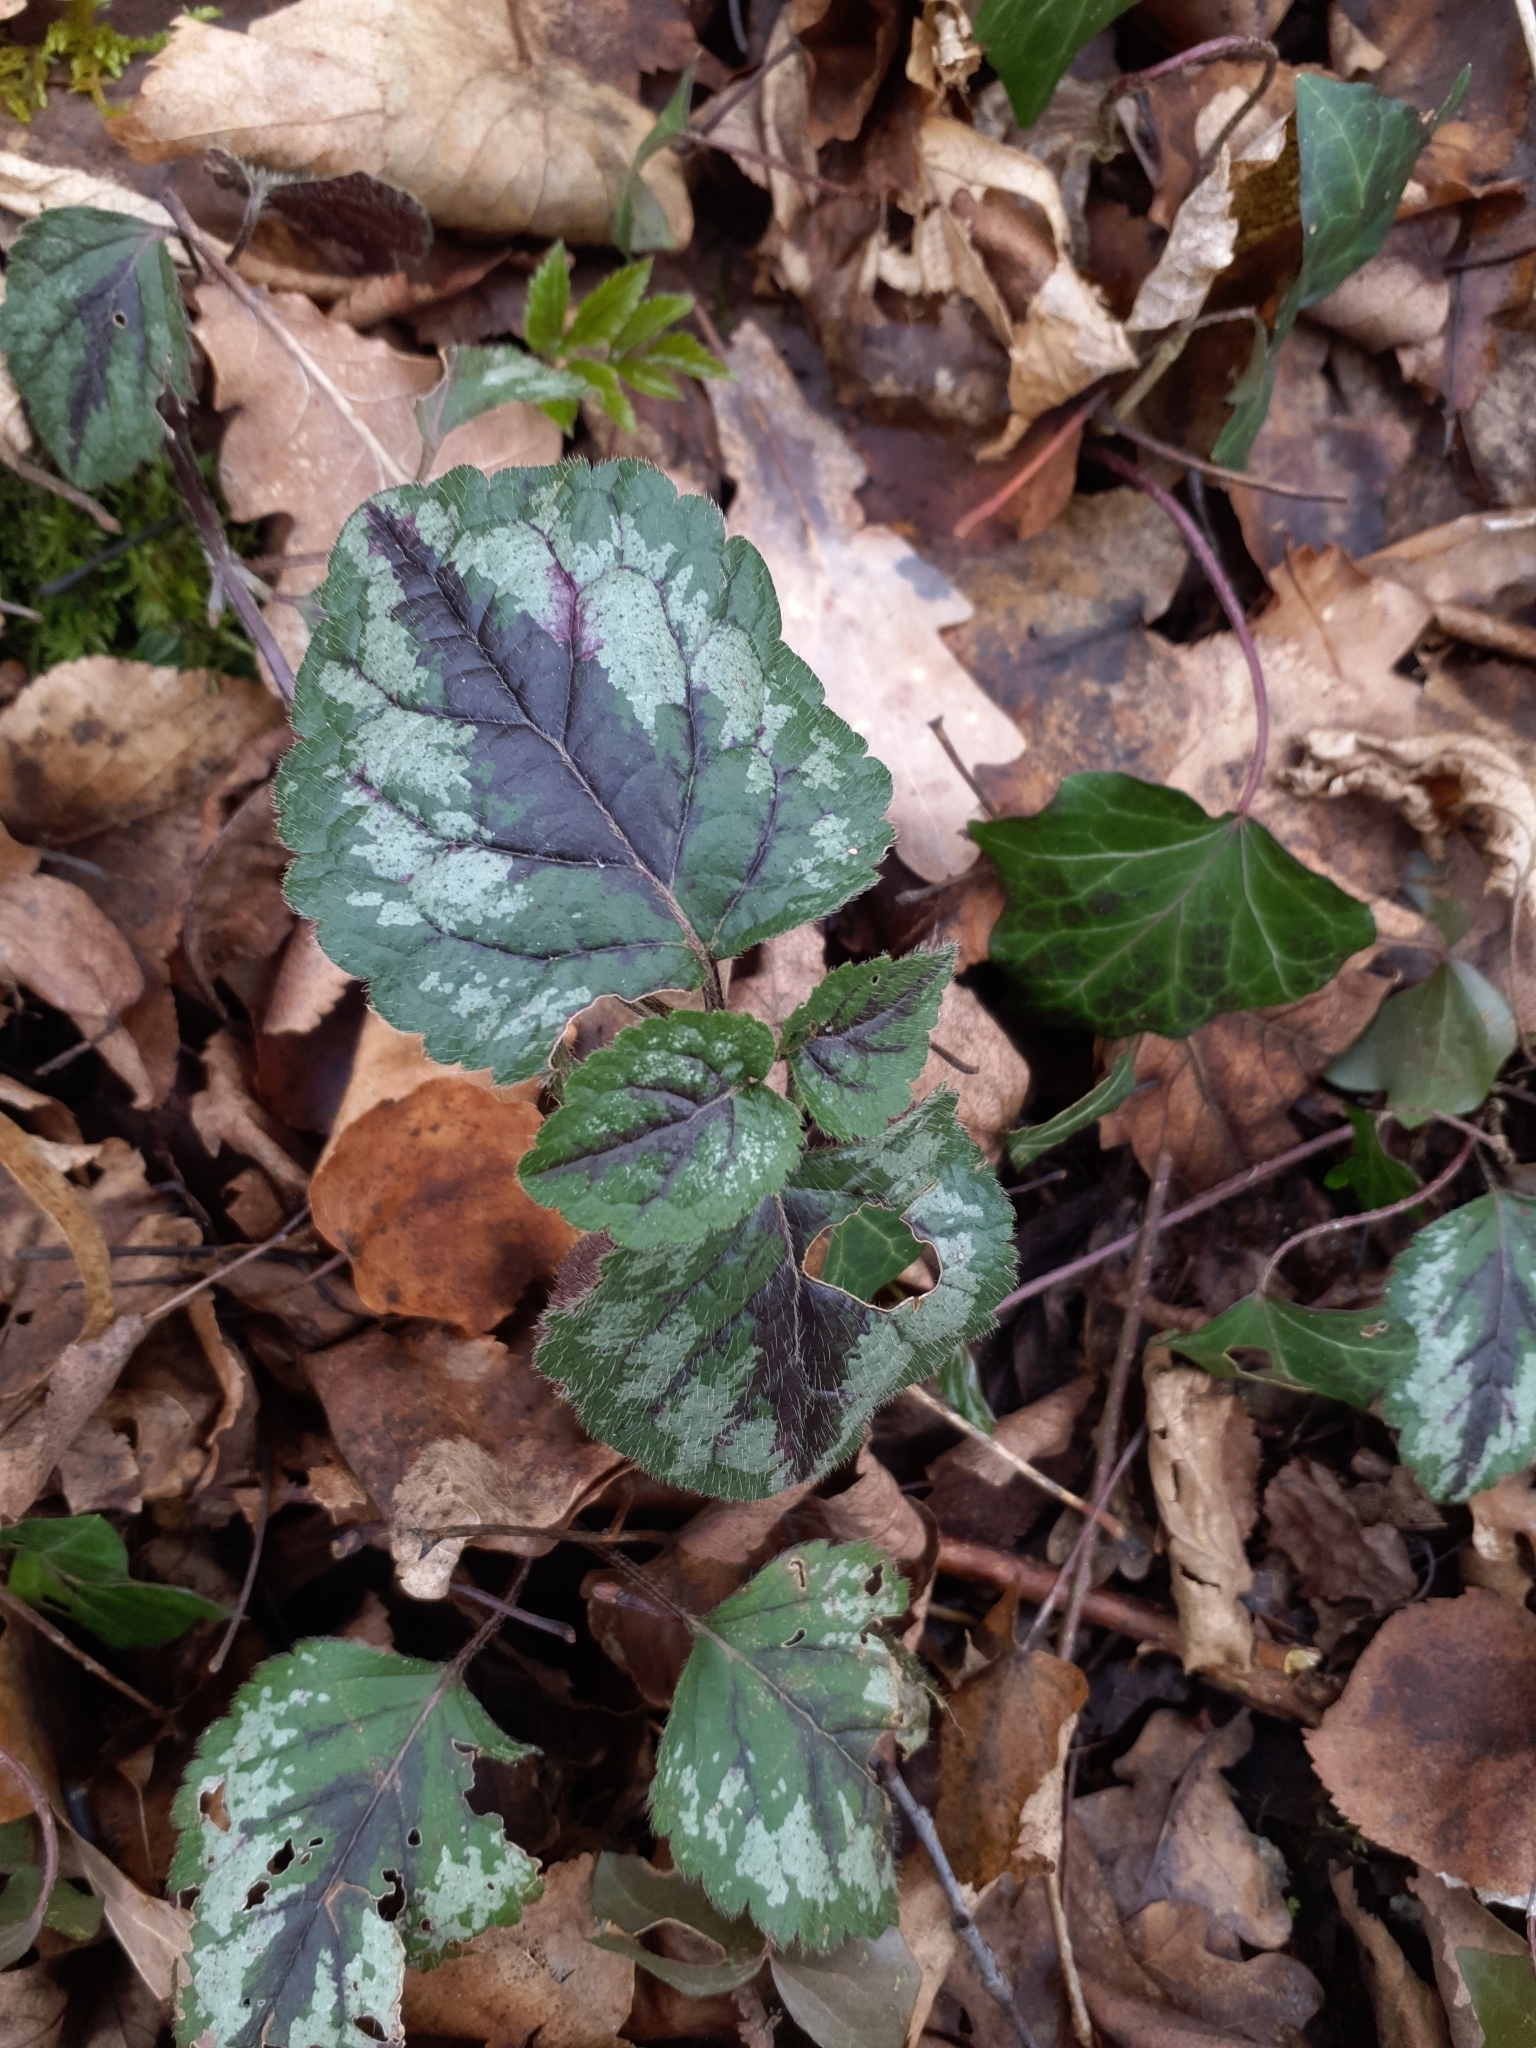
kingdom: Plantae
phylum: Tracheophyta
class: Magnoliopsida
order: Lamiales
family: Lamiaceae
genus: Lamium
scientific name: Lamium galeobdolon
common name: Yellow archangel
